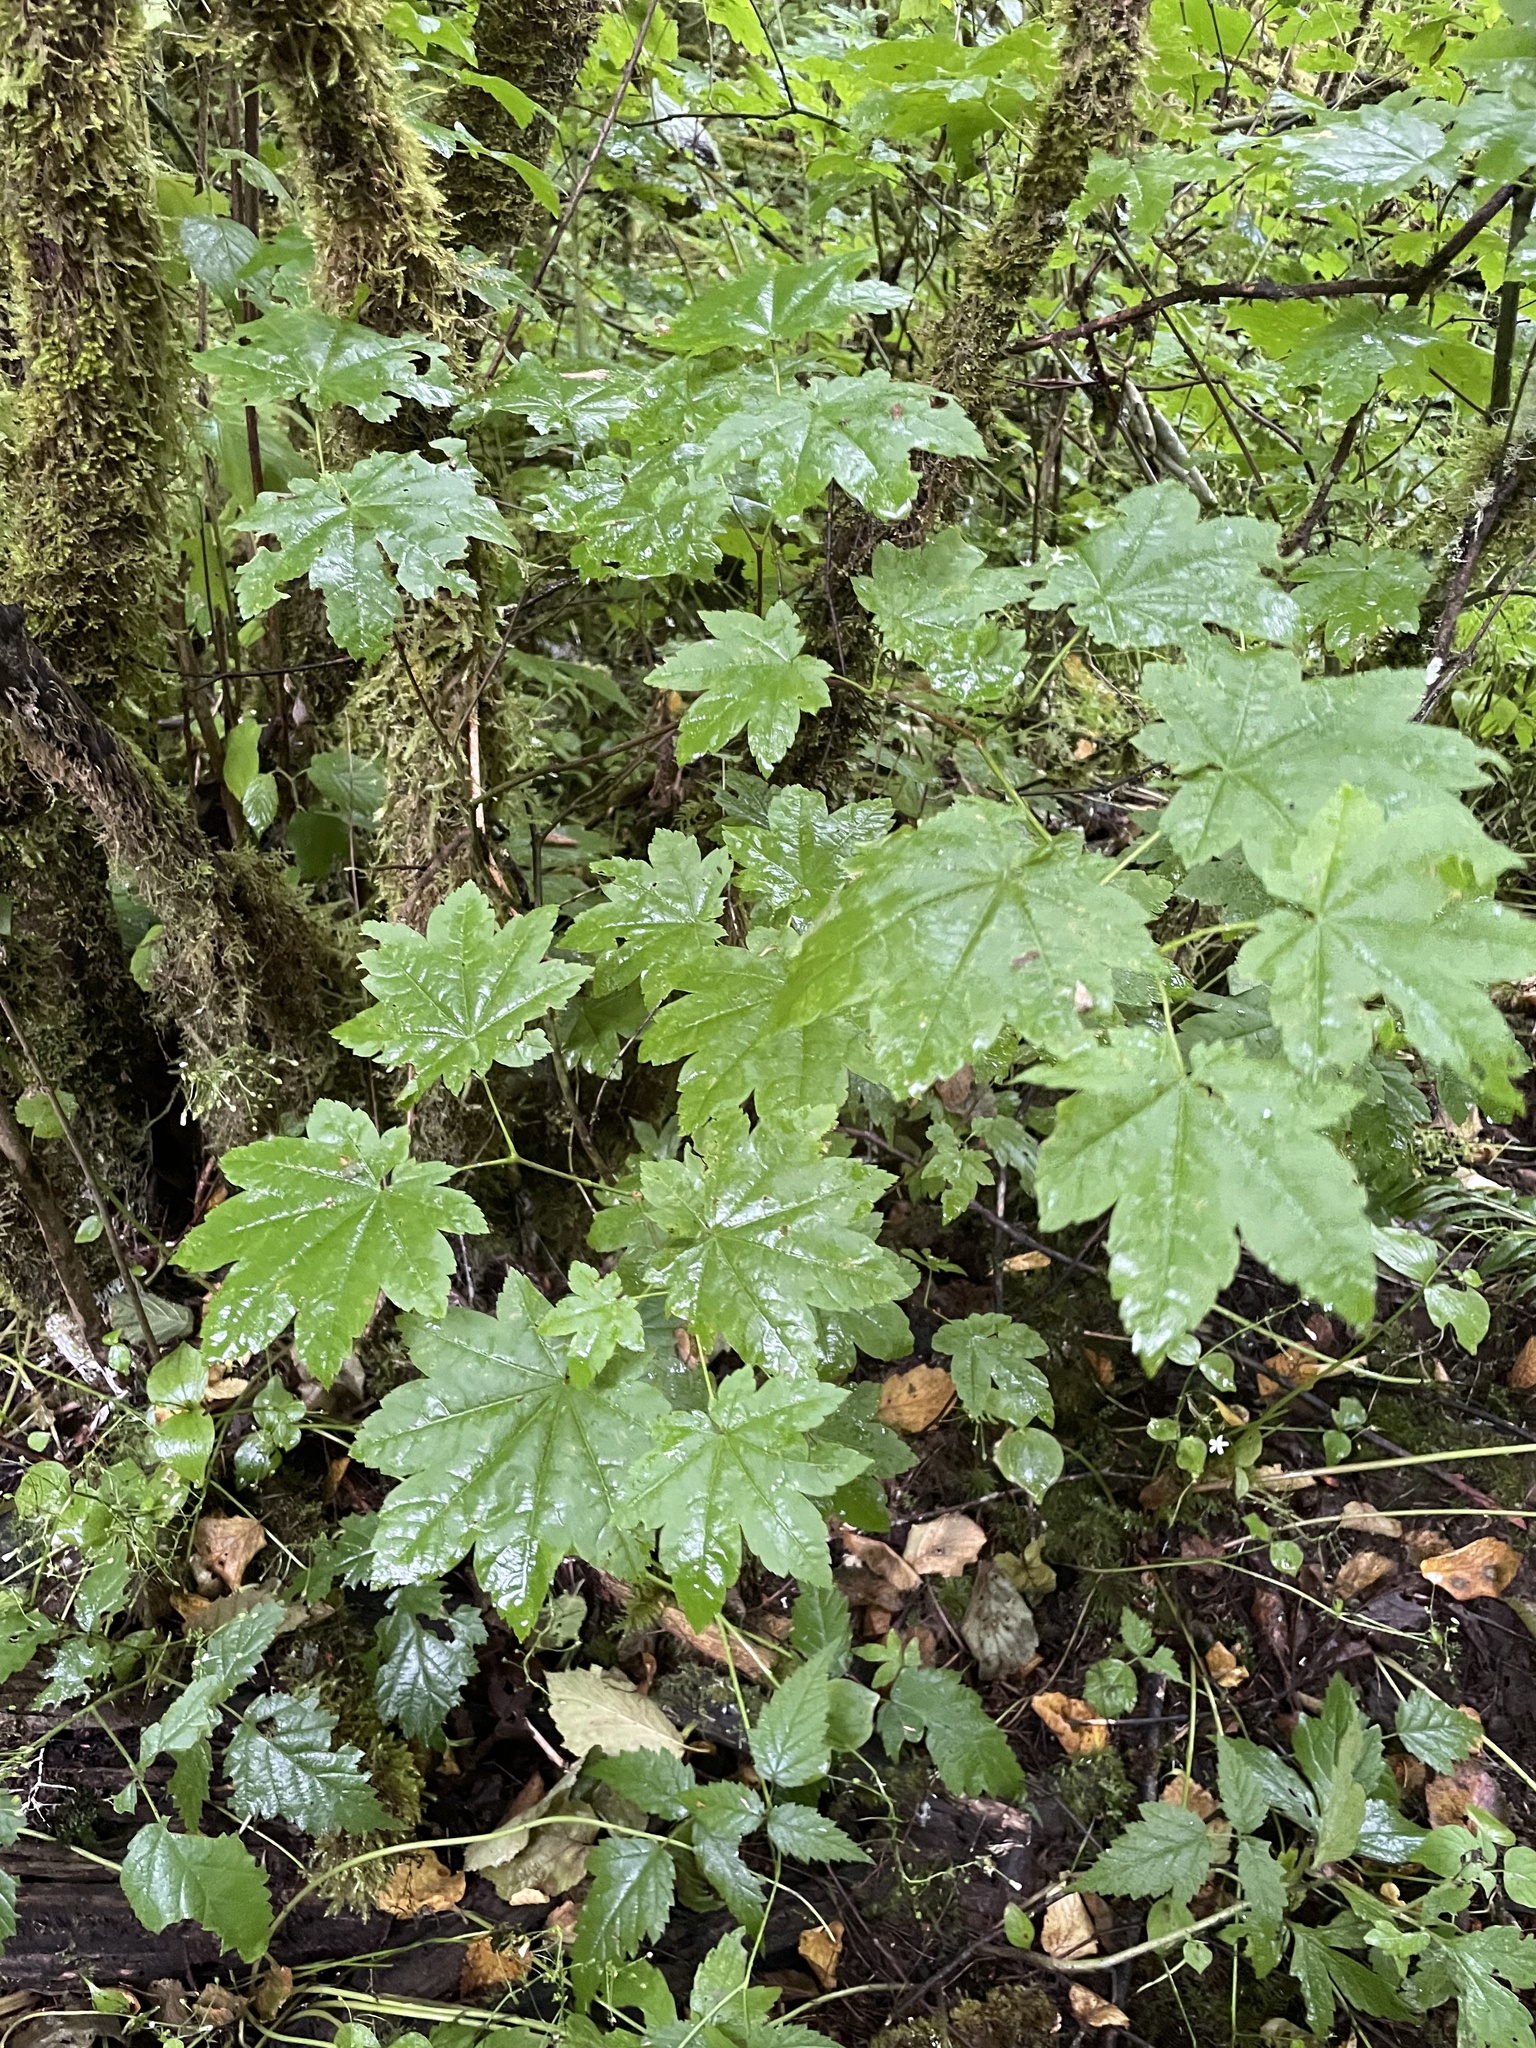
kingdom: Plantae
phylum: Tracheophyta
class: Magnoliopsida
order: Sapindales
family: Sapindaceae
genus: Acer
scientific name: Acer circinatum
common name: Vine maple
